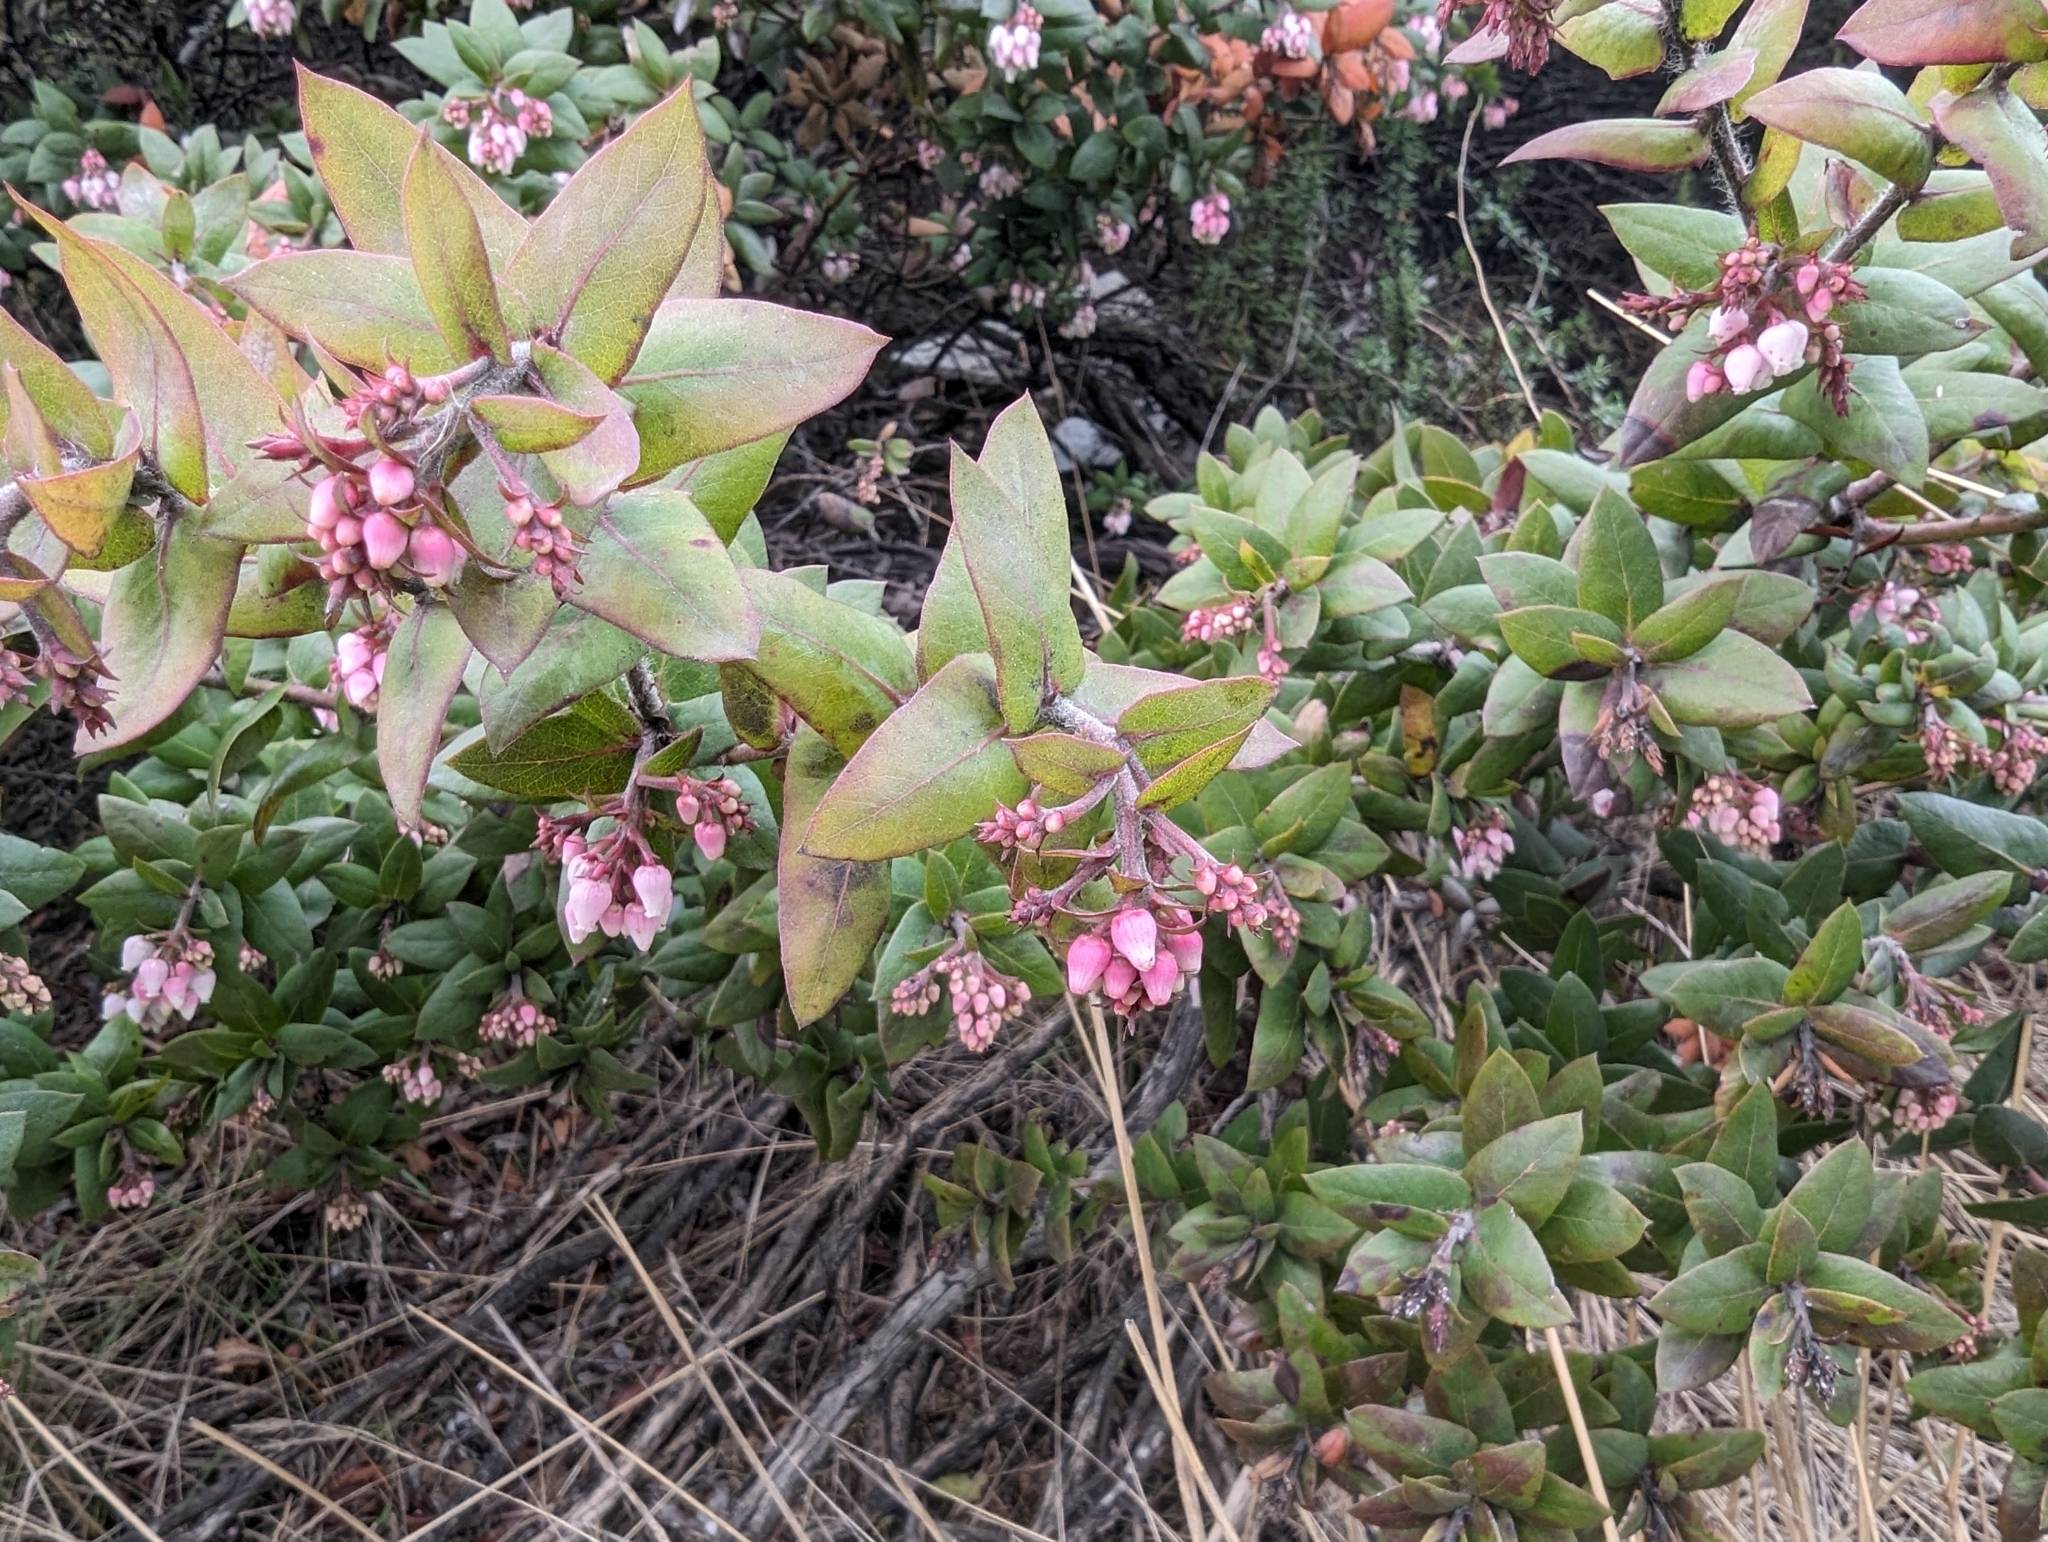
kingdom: Plantae
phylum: Tracheophyta
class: Magnoliopsida
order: Ericales
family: Ericaceae
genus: Arctostaphylos
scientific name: Arctostaphylos pajaroensis
